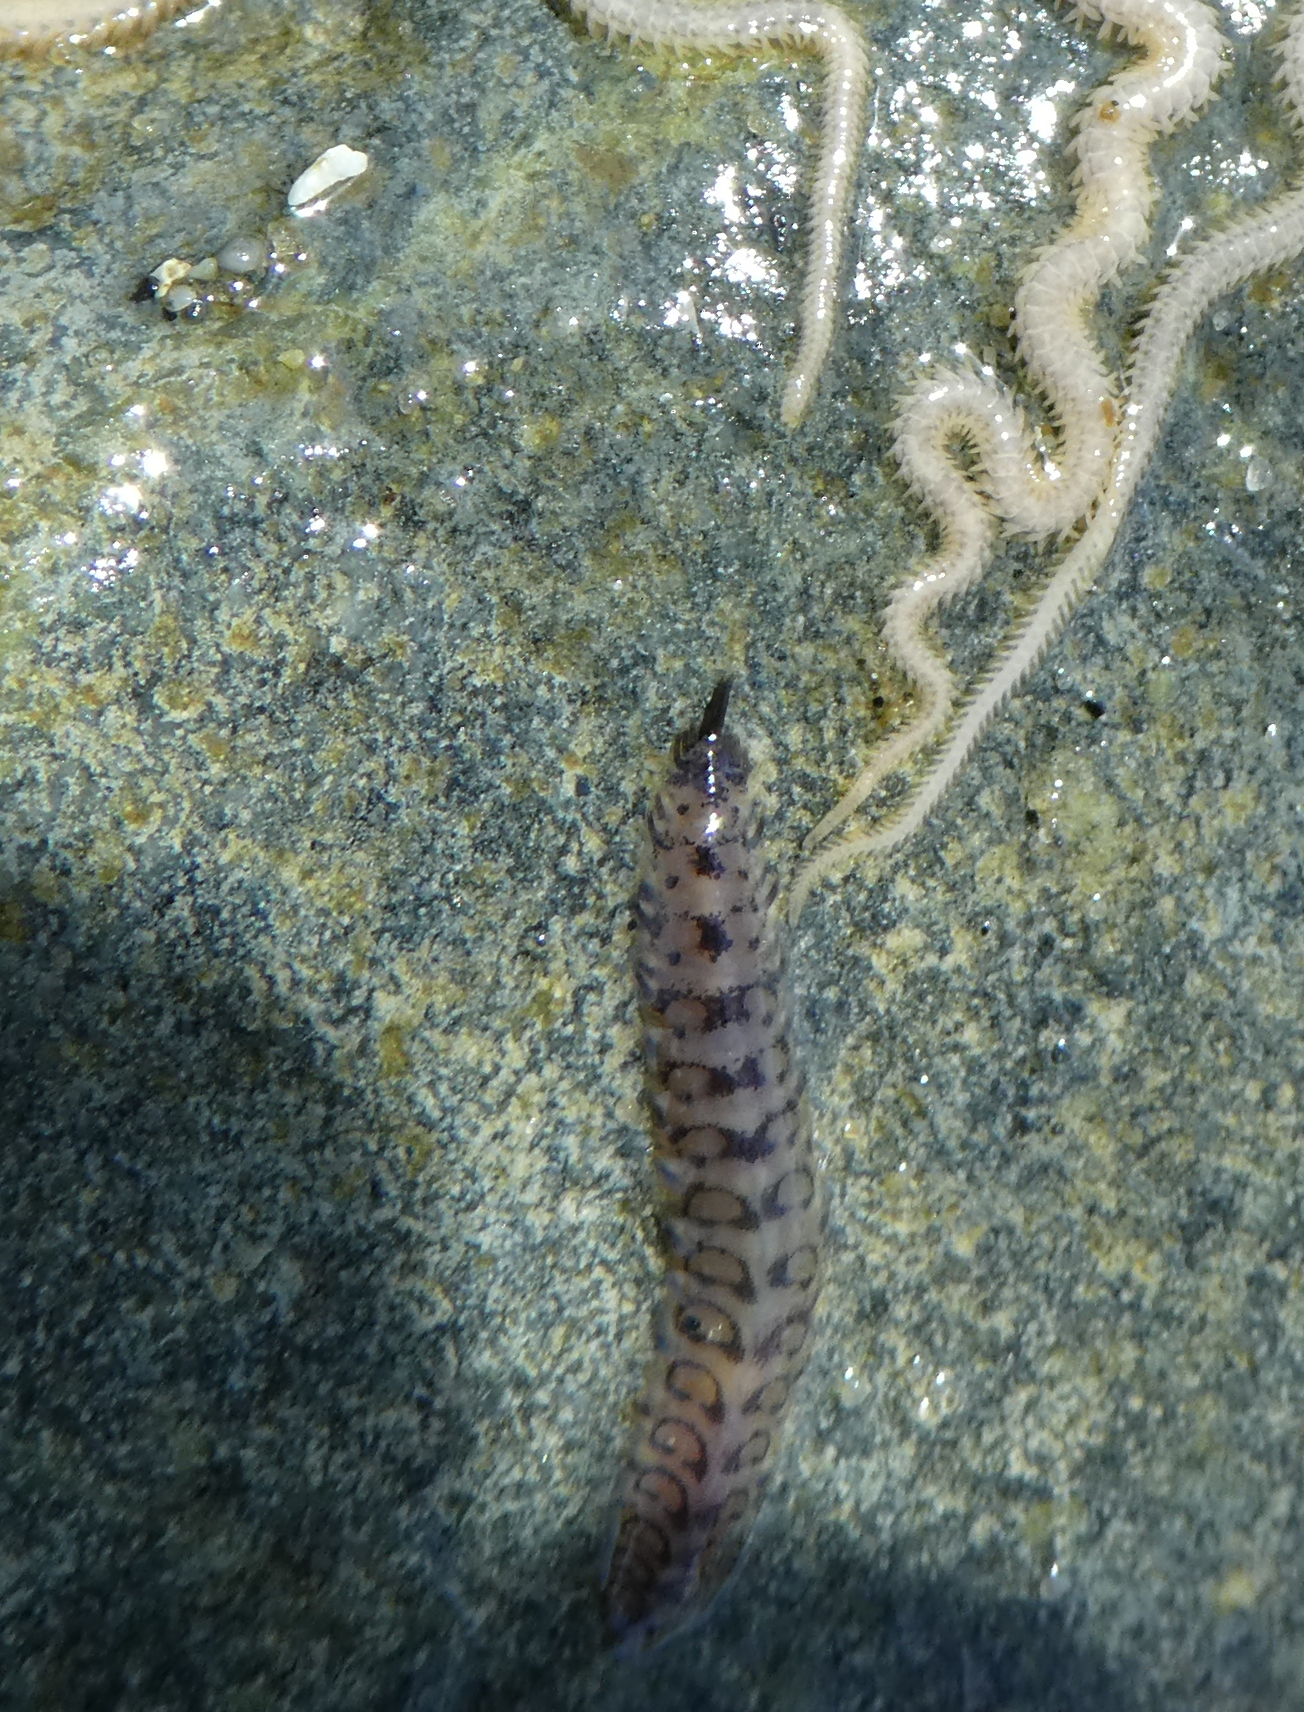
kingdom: Animalia
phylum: Annelida
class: Polychaeta
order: Phyllodocida
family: Polynoidae
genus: Malmgreniella
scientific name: Malmgreniella nigralba
